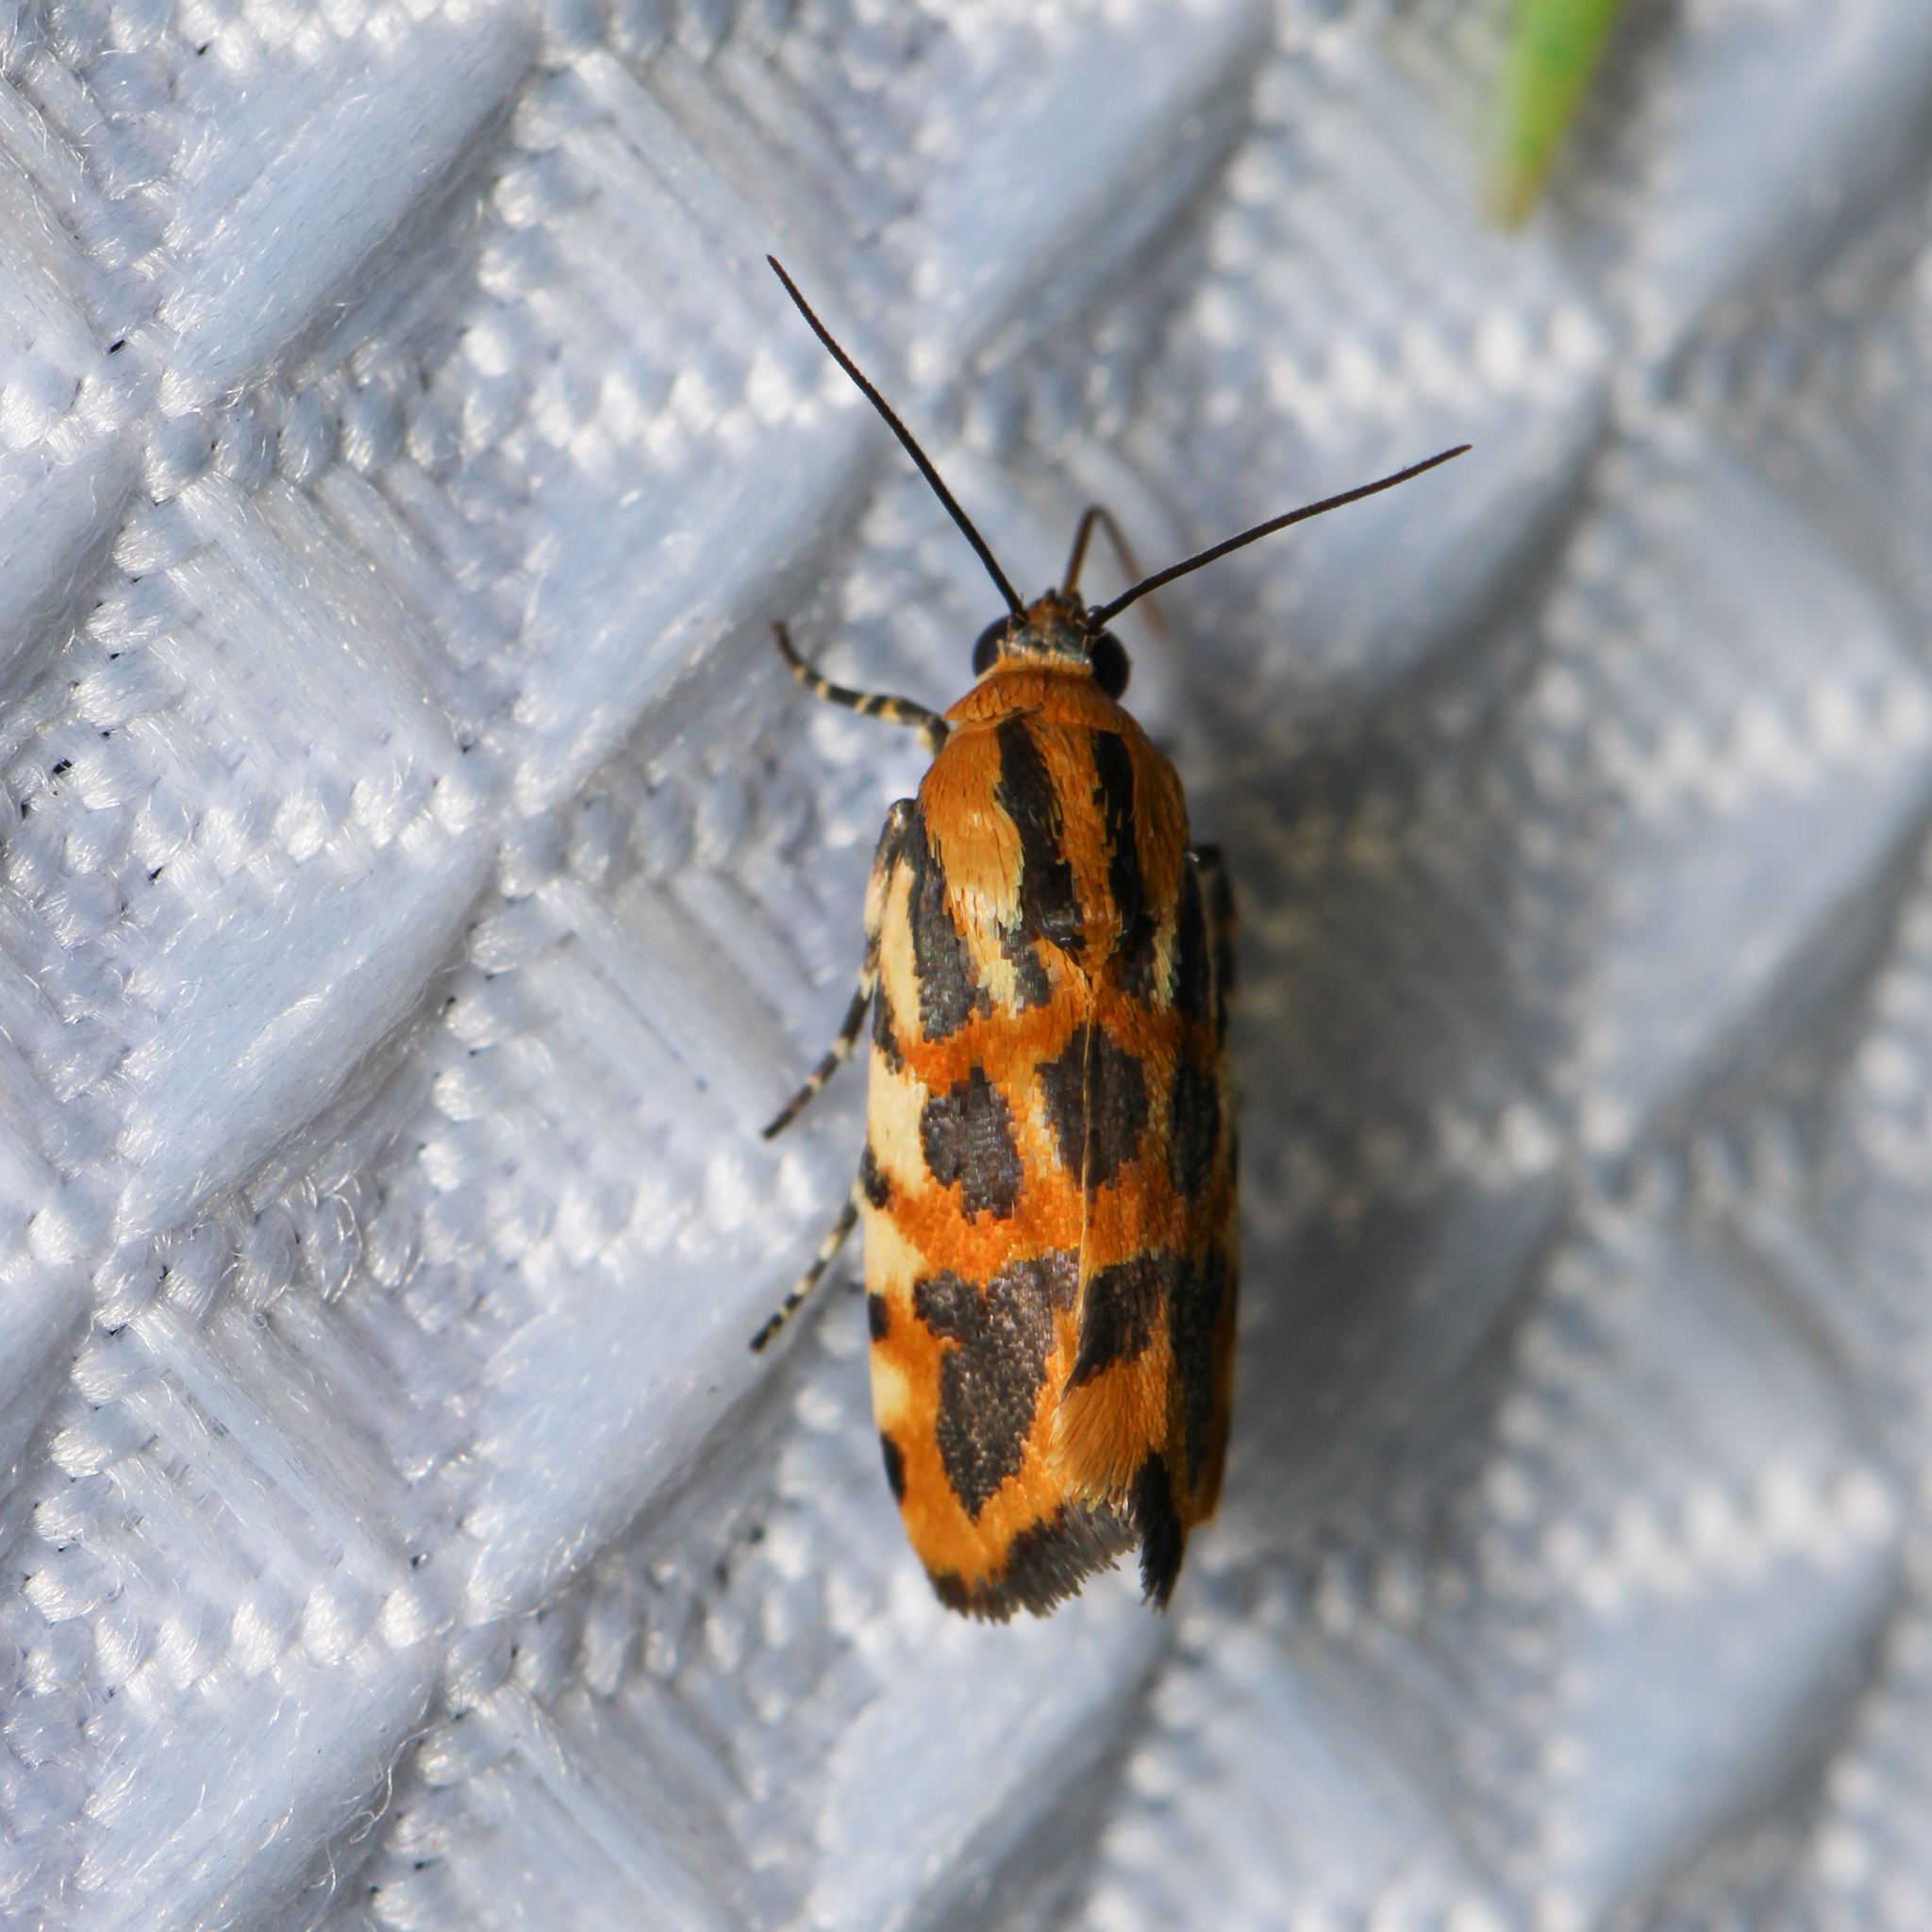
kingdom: Animalia
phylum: Arthropoda
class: Insecta
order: Lepidoptera
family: Noctuidae
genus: Acontia
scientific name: Acontia leo
